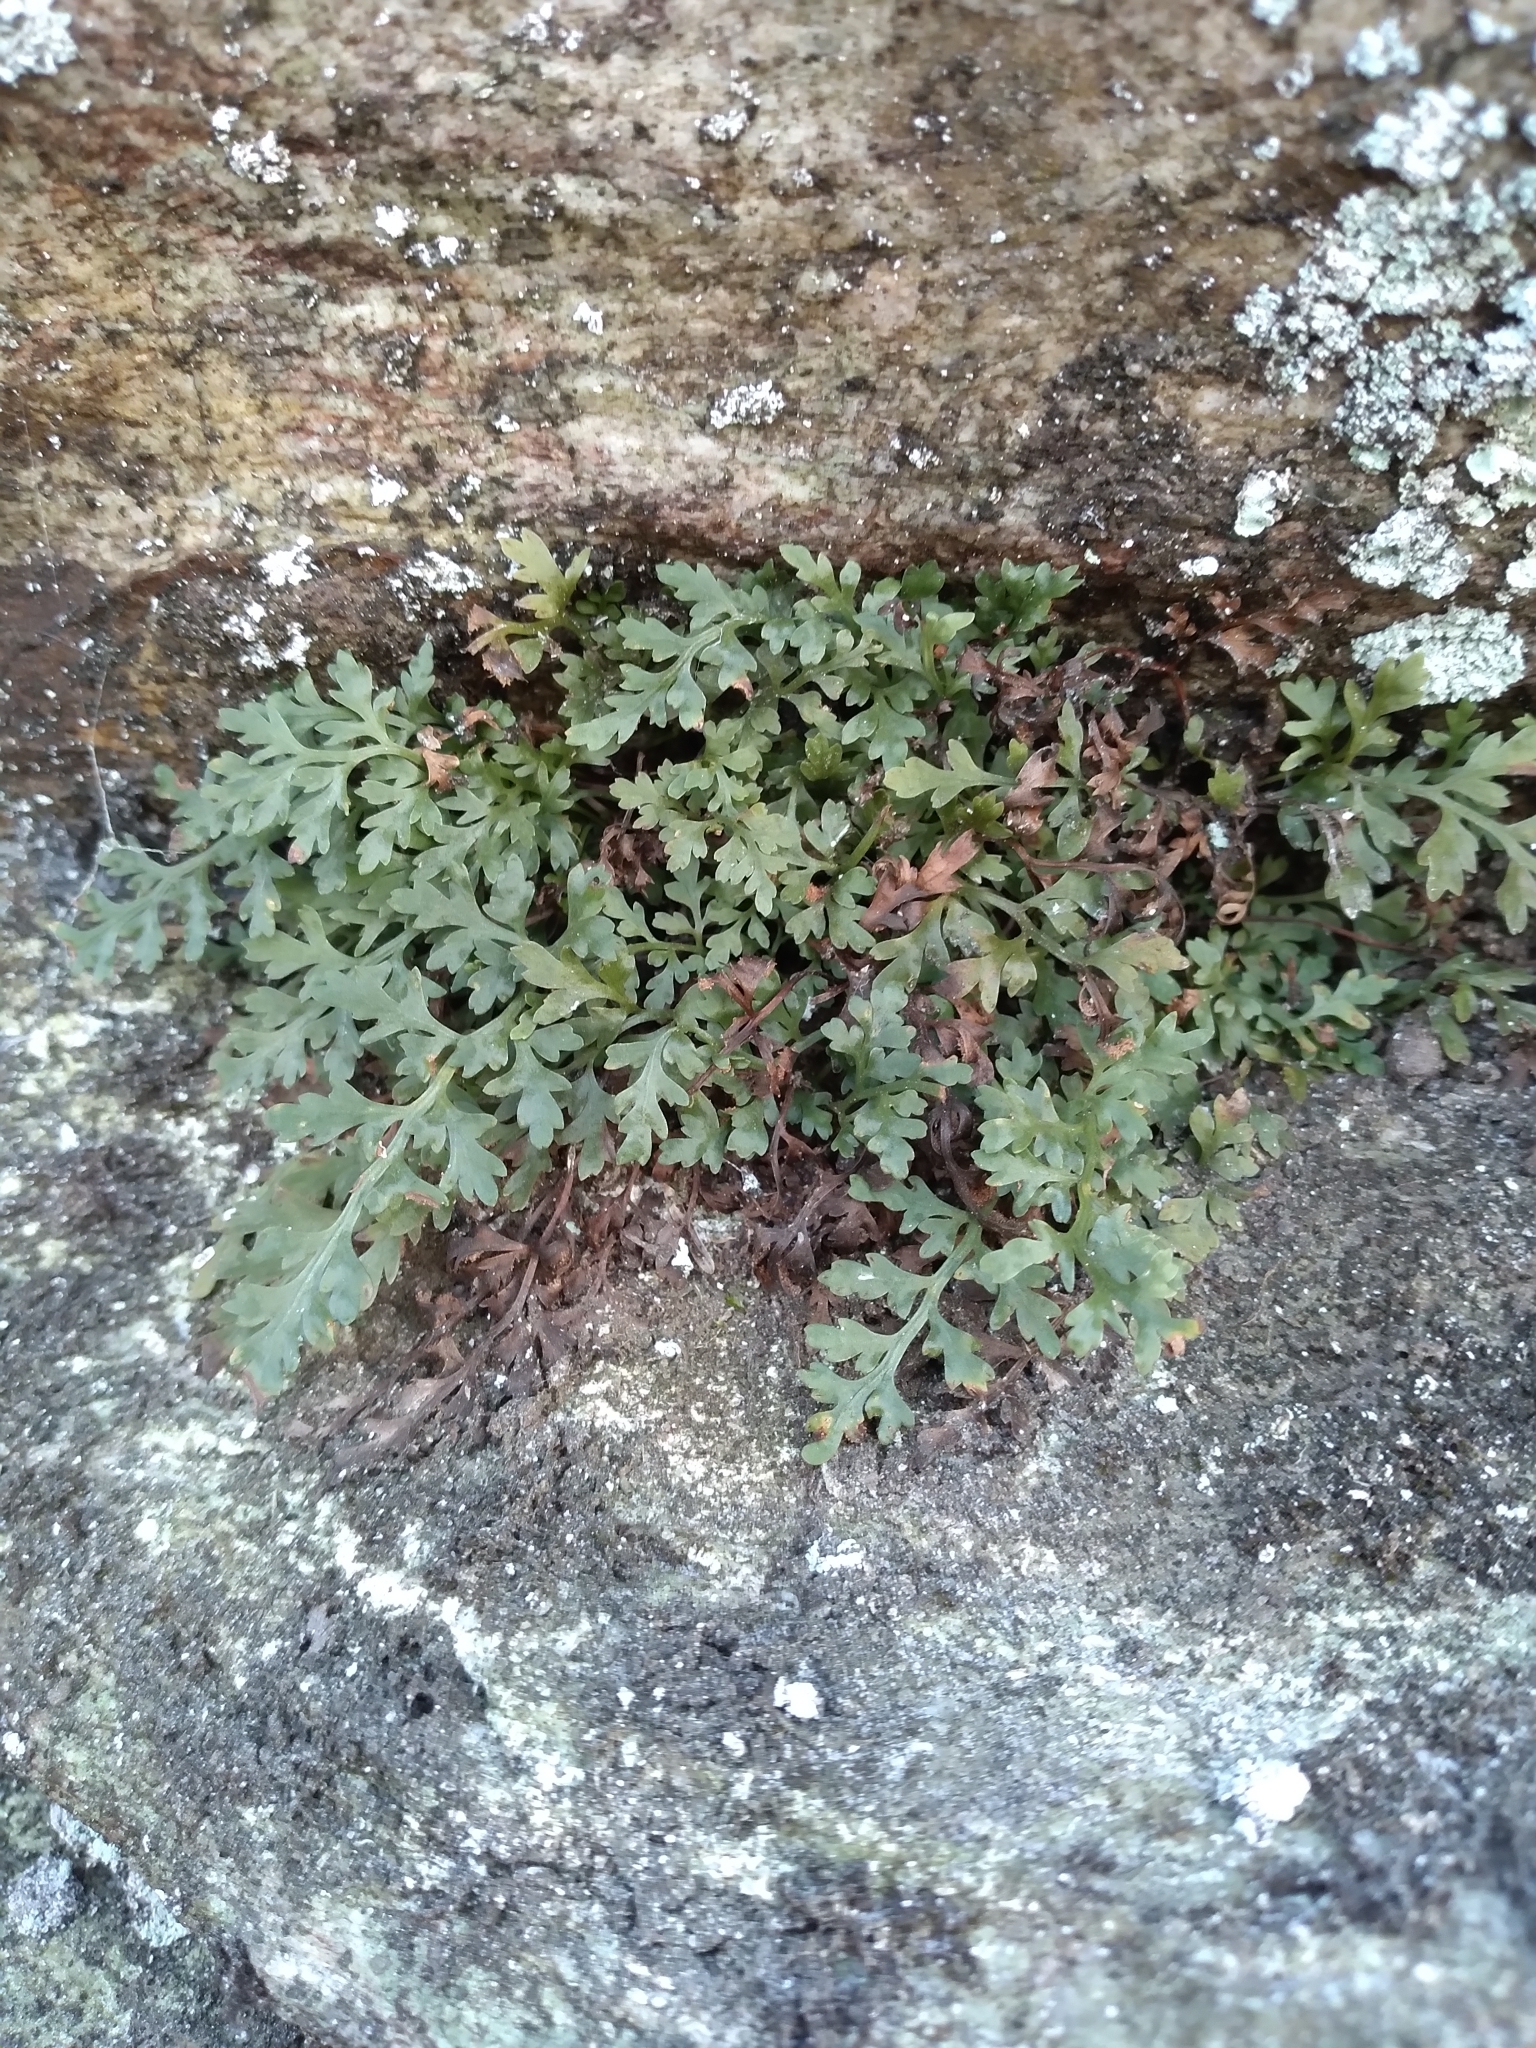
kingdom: Plantae
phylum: Tracheophyta
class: Polypodiopsida
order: Polypodiales
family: Aspleniaceae
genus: Asplenium
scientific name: Asplenium montanum
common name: Mountain spleenwort
